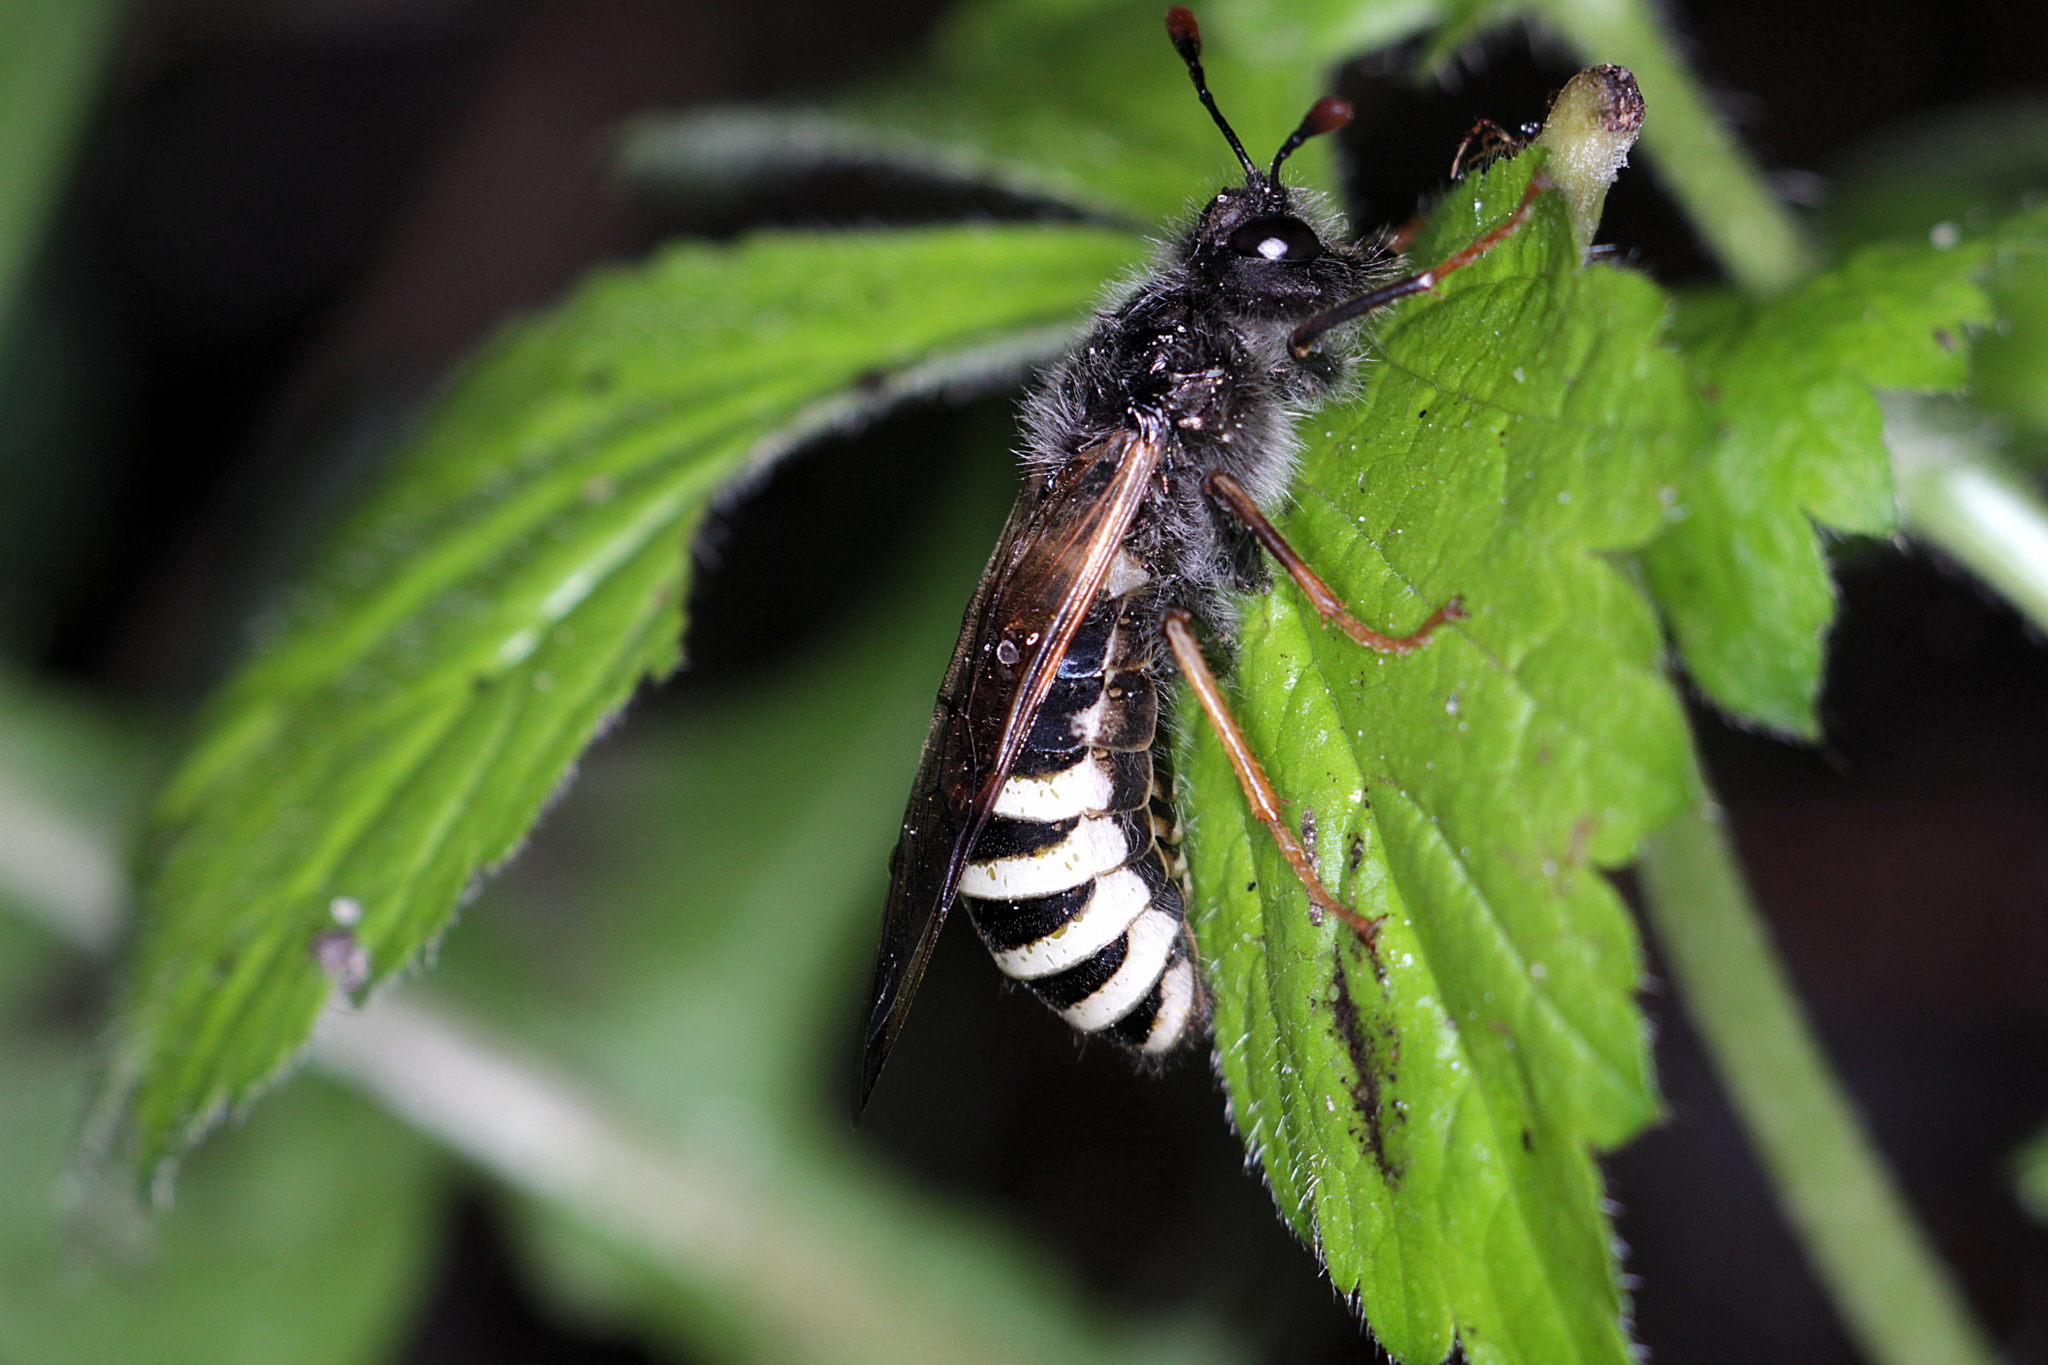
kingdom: Animalia
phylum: Arthropoda
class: Insecta
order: Hymenoptera
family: Cimbicidae
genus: Pseudoclavellaria
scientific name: Pseudoclavellaria amerinae
